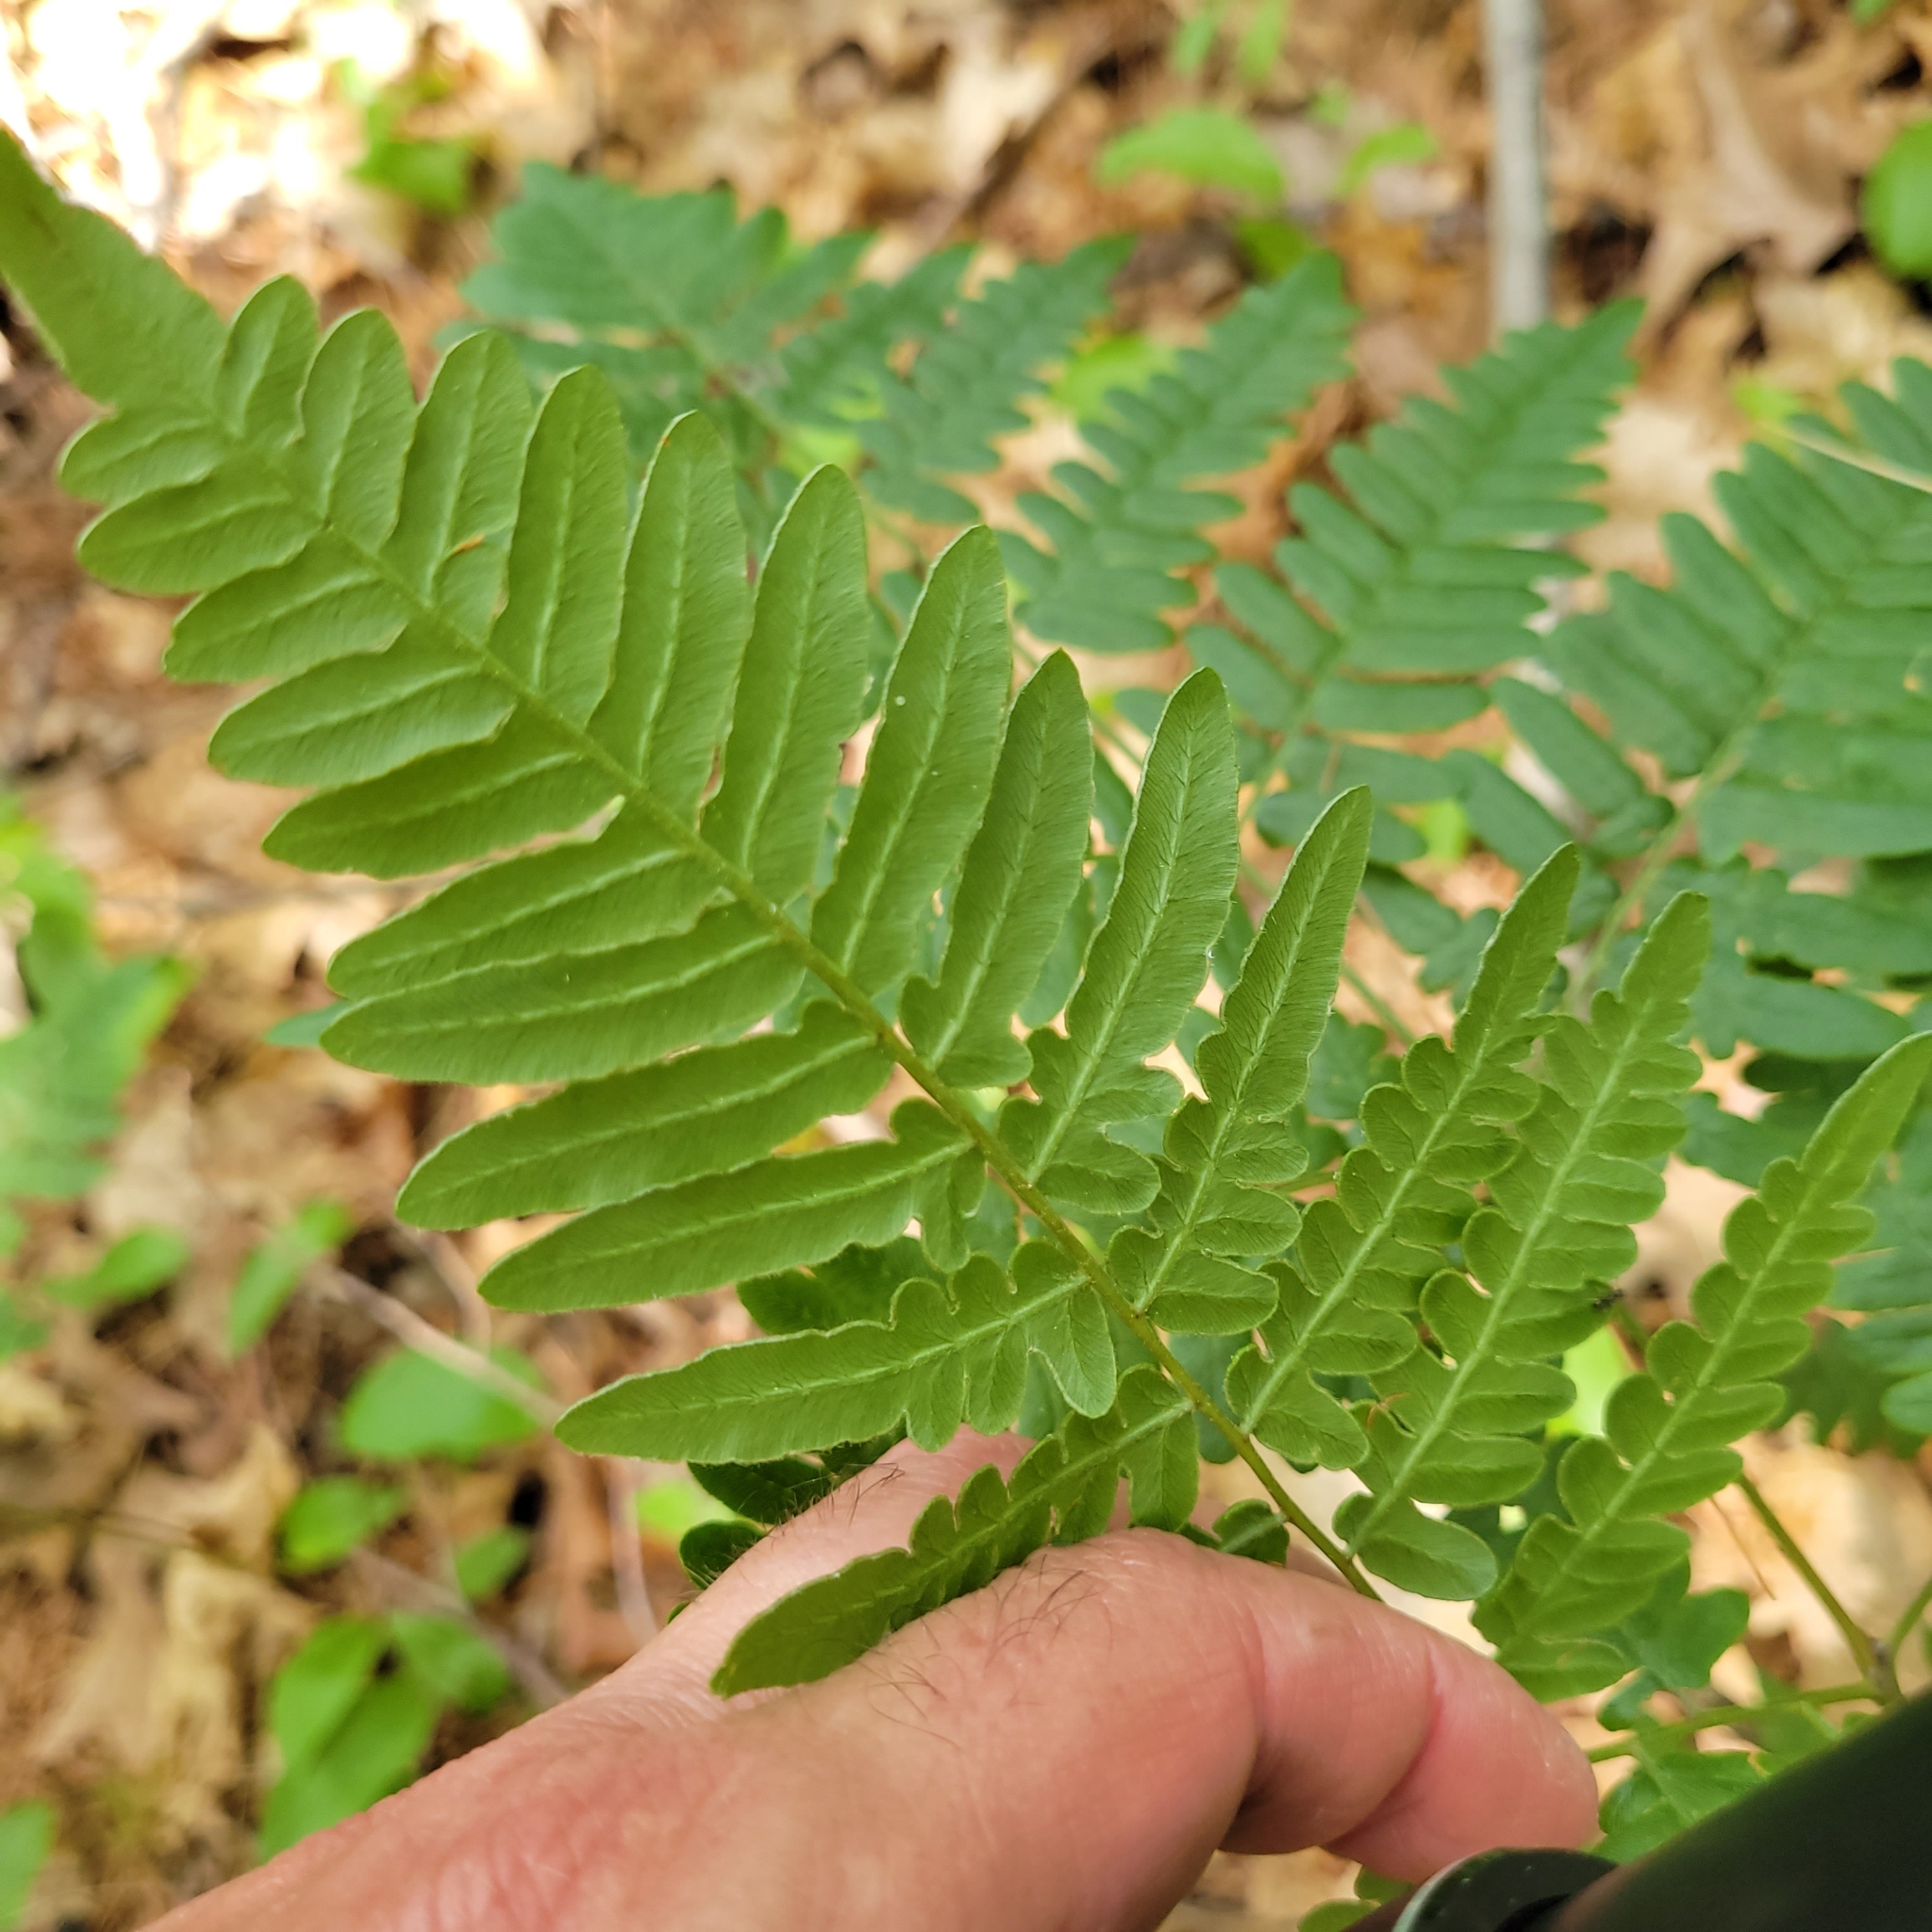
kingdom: Plantae
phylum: Tracheophyta
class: Polypodiopsida
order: Polypodiales
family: Dennstaedtiaceae
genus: Pteridium
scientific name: Pteridium aquilinum
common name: Bracken
